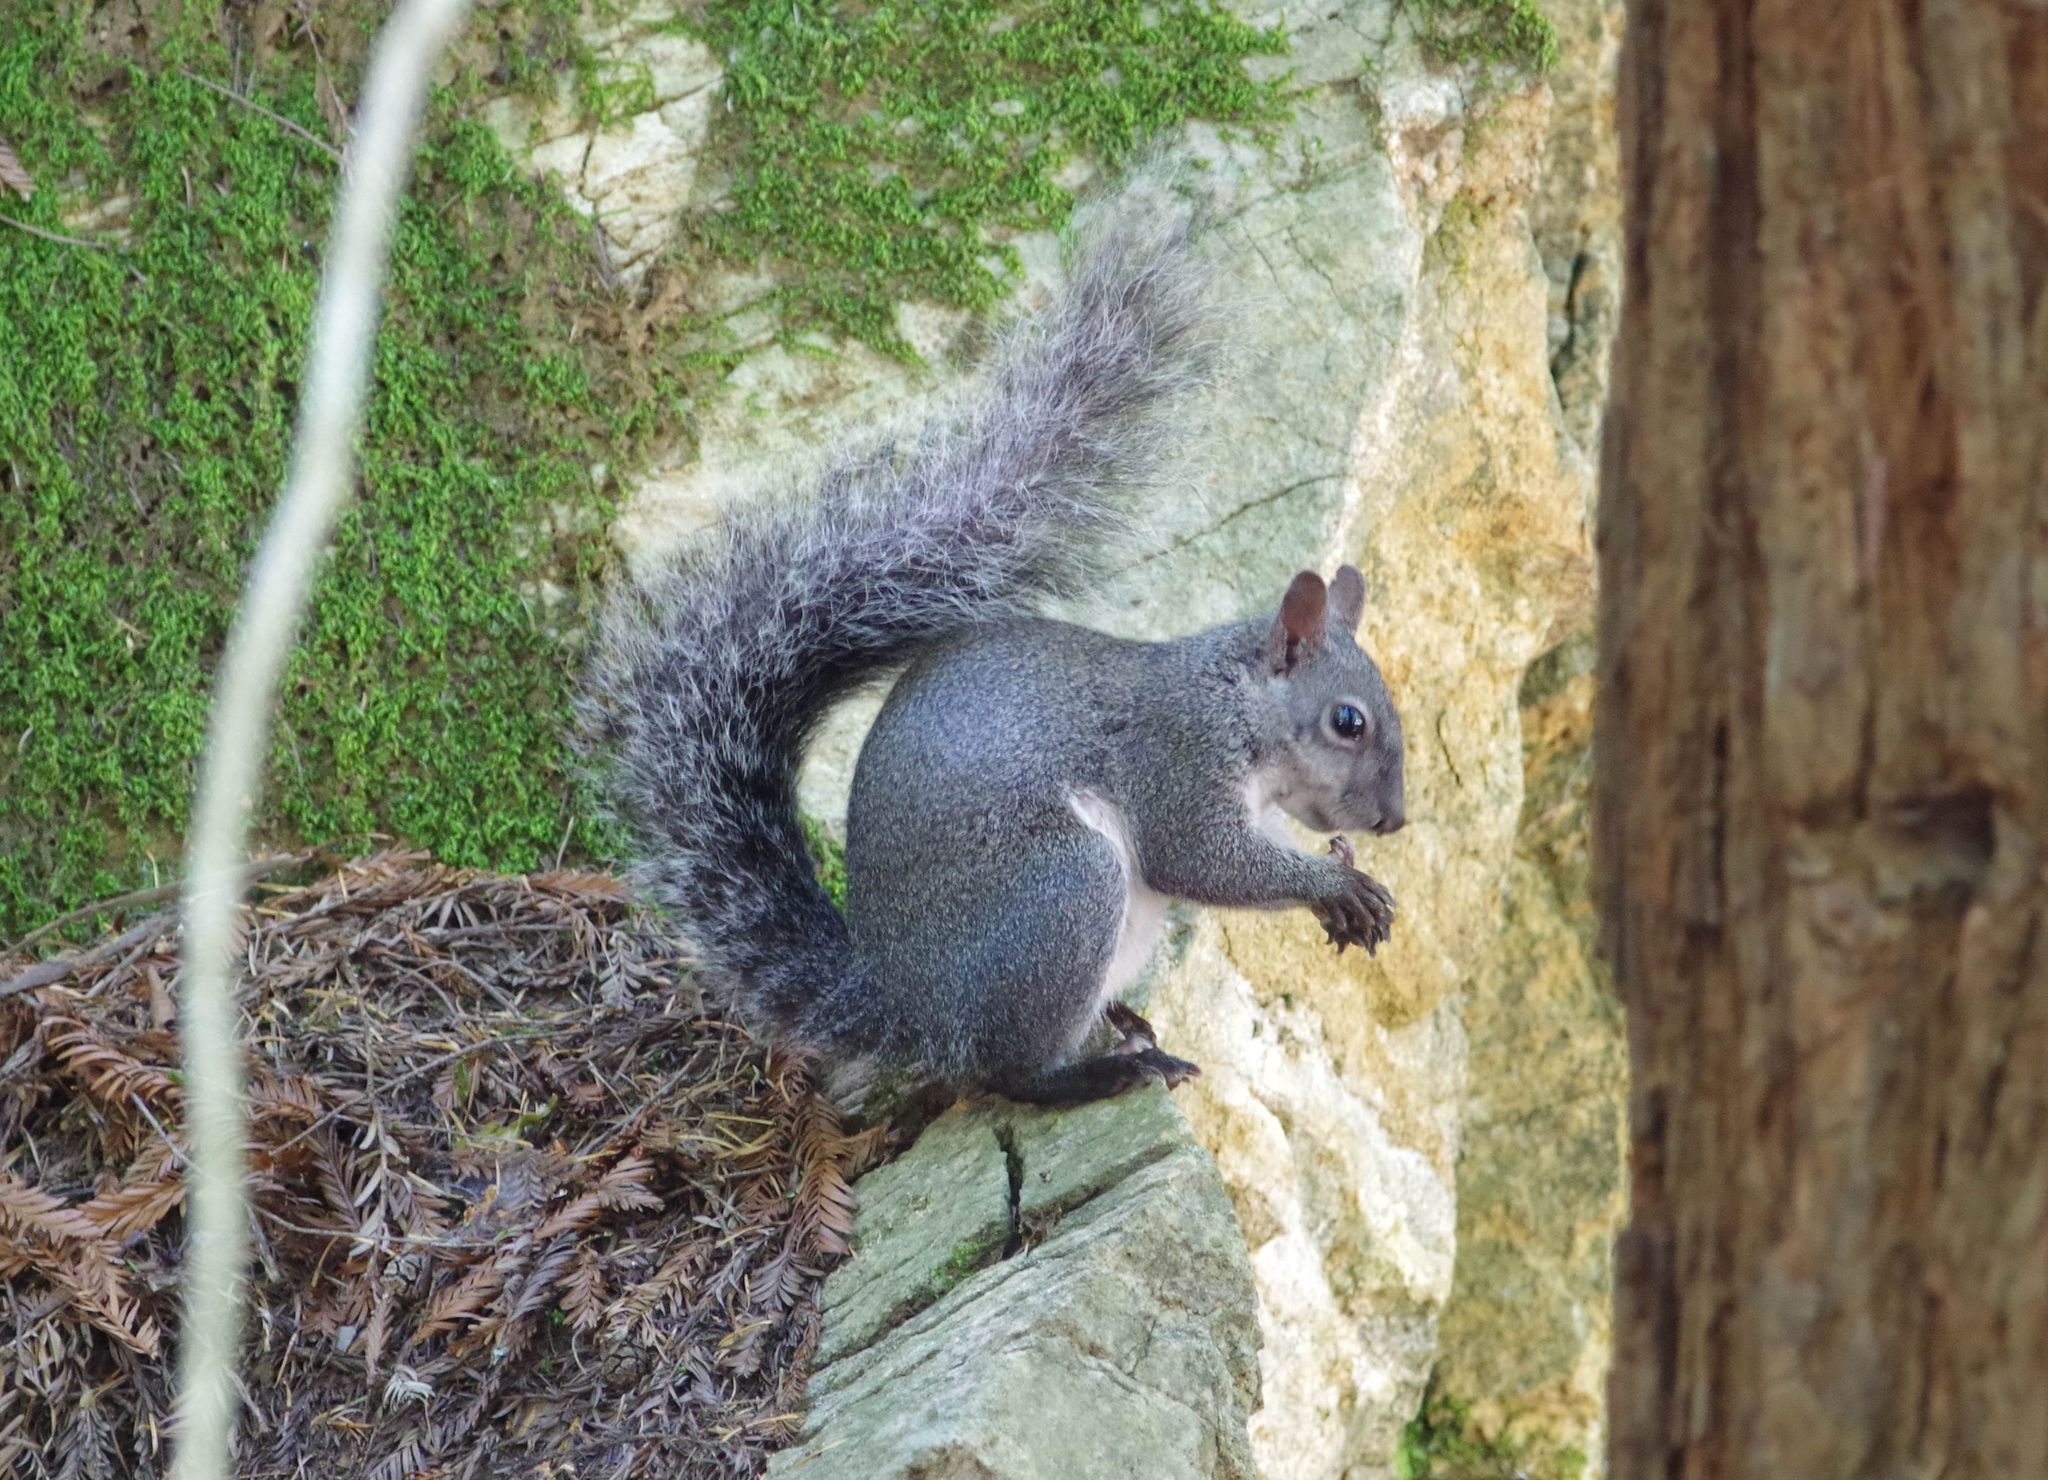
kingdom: Animalia
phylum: Chordata
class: Mammalia
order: Rodentia
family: Sciuridae
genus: Sciurus
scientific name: Sciurus griseus
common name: Western gray squirrel
